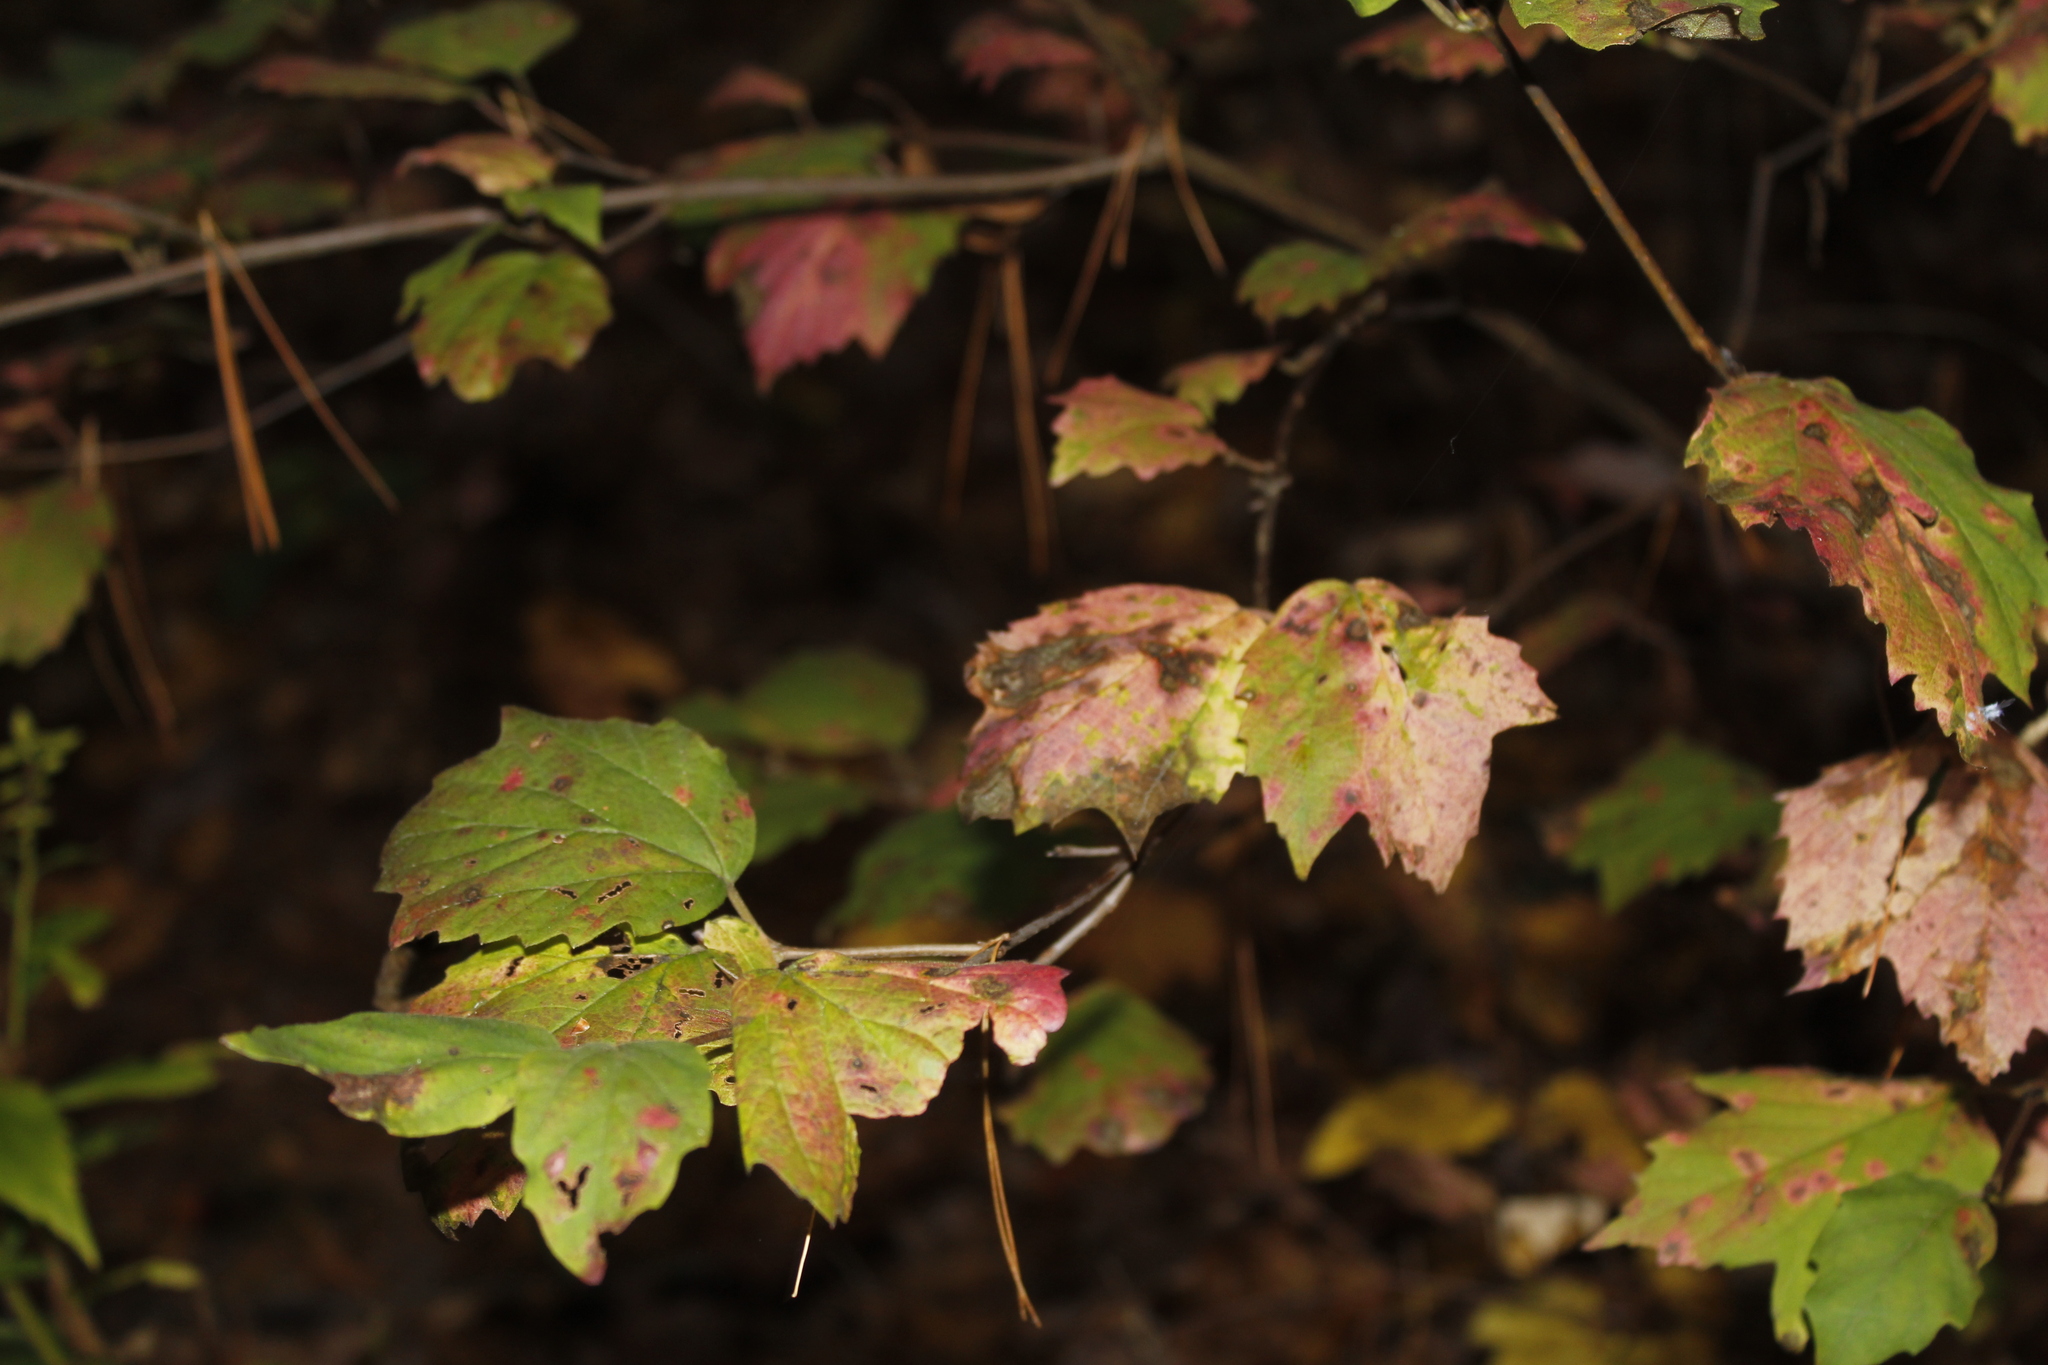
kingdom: Plantae
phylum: Tracheophyta
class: Magnoliopsida
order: Dipsacales
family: Viburnaceae
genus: Viburnum
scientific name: Viburnum acerifolium
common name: Dockmackie
